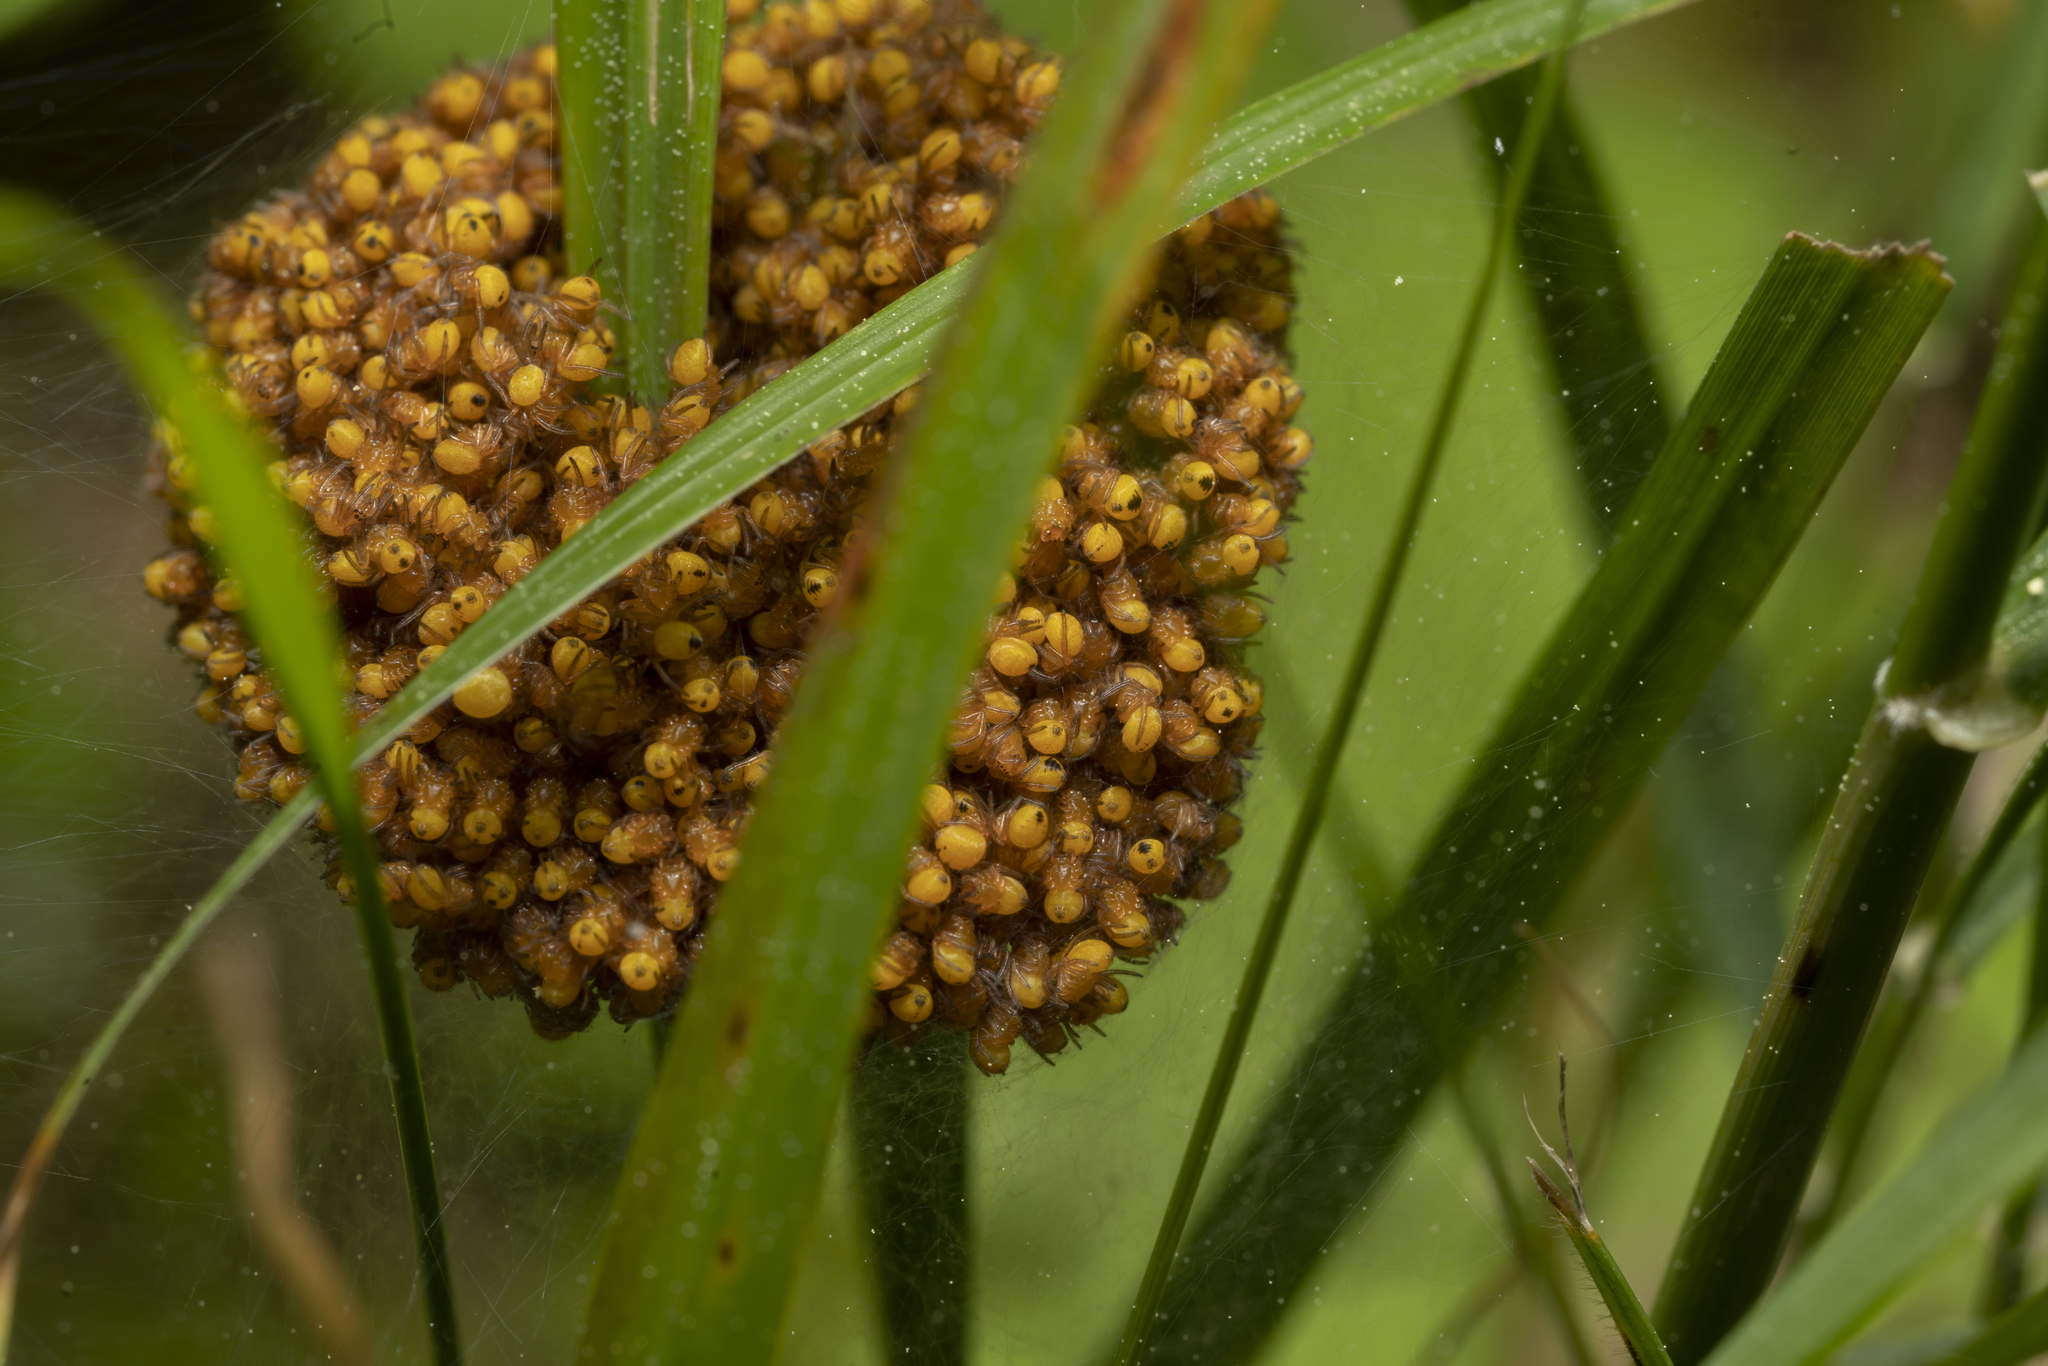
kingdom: Animalia
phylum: Arthropoda
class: Arachnida
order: Araneae
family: Araneidae
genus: Araneus
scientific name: Araneus diadematus
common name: Cross orbweaver
